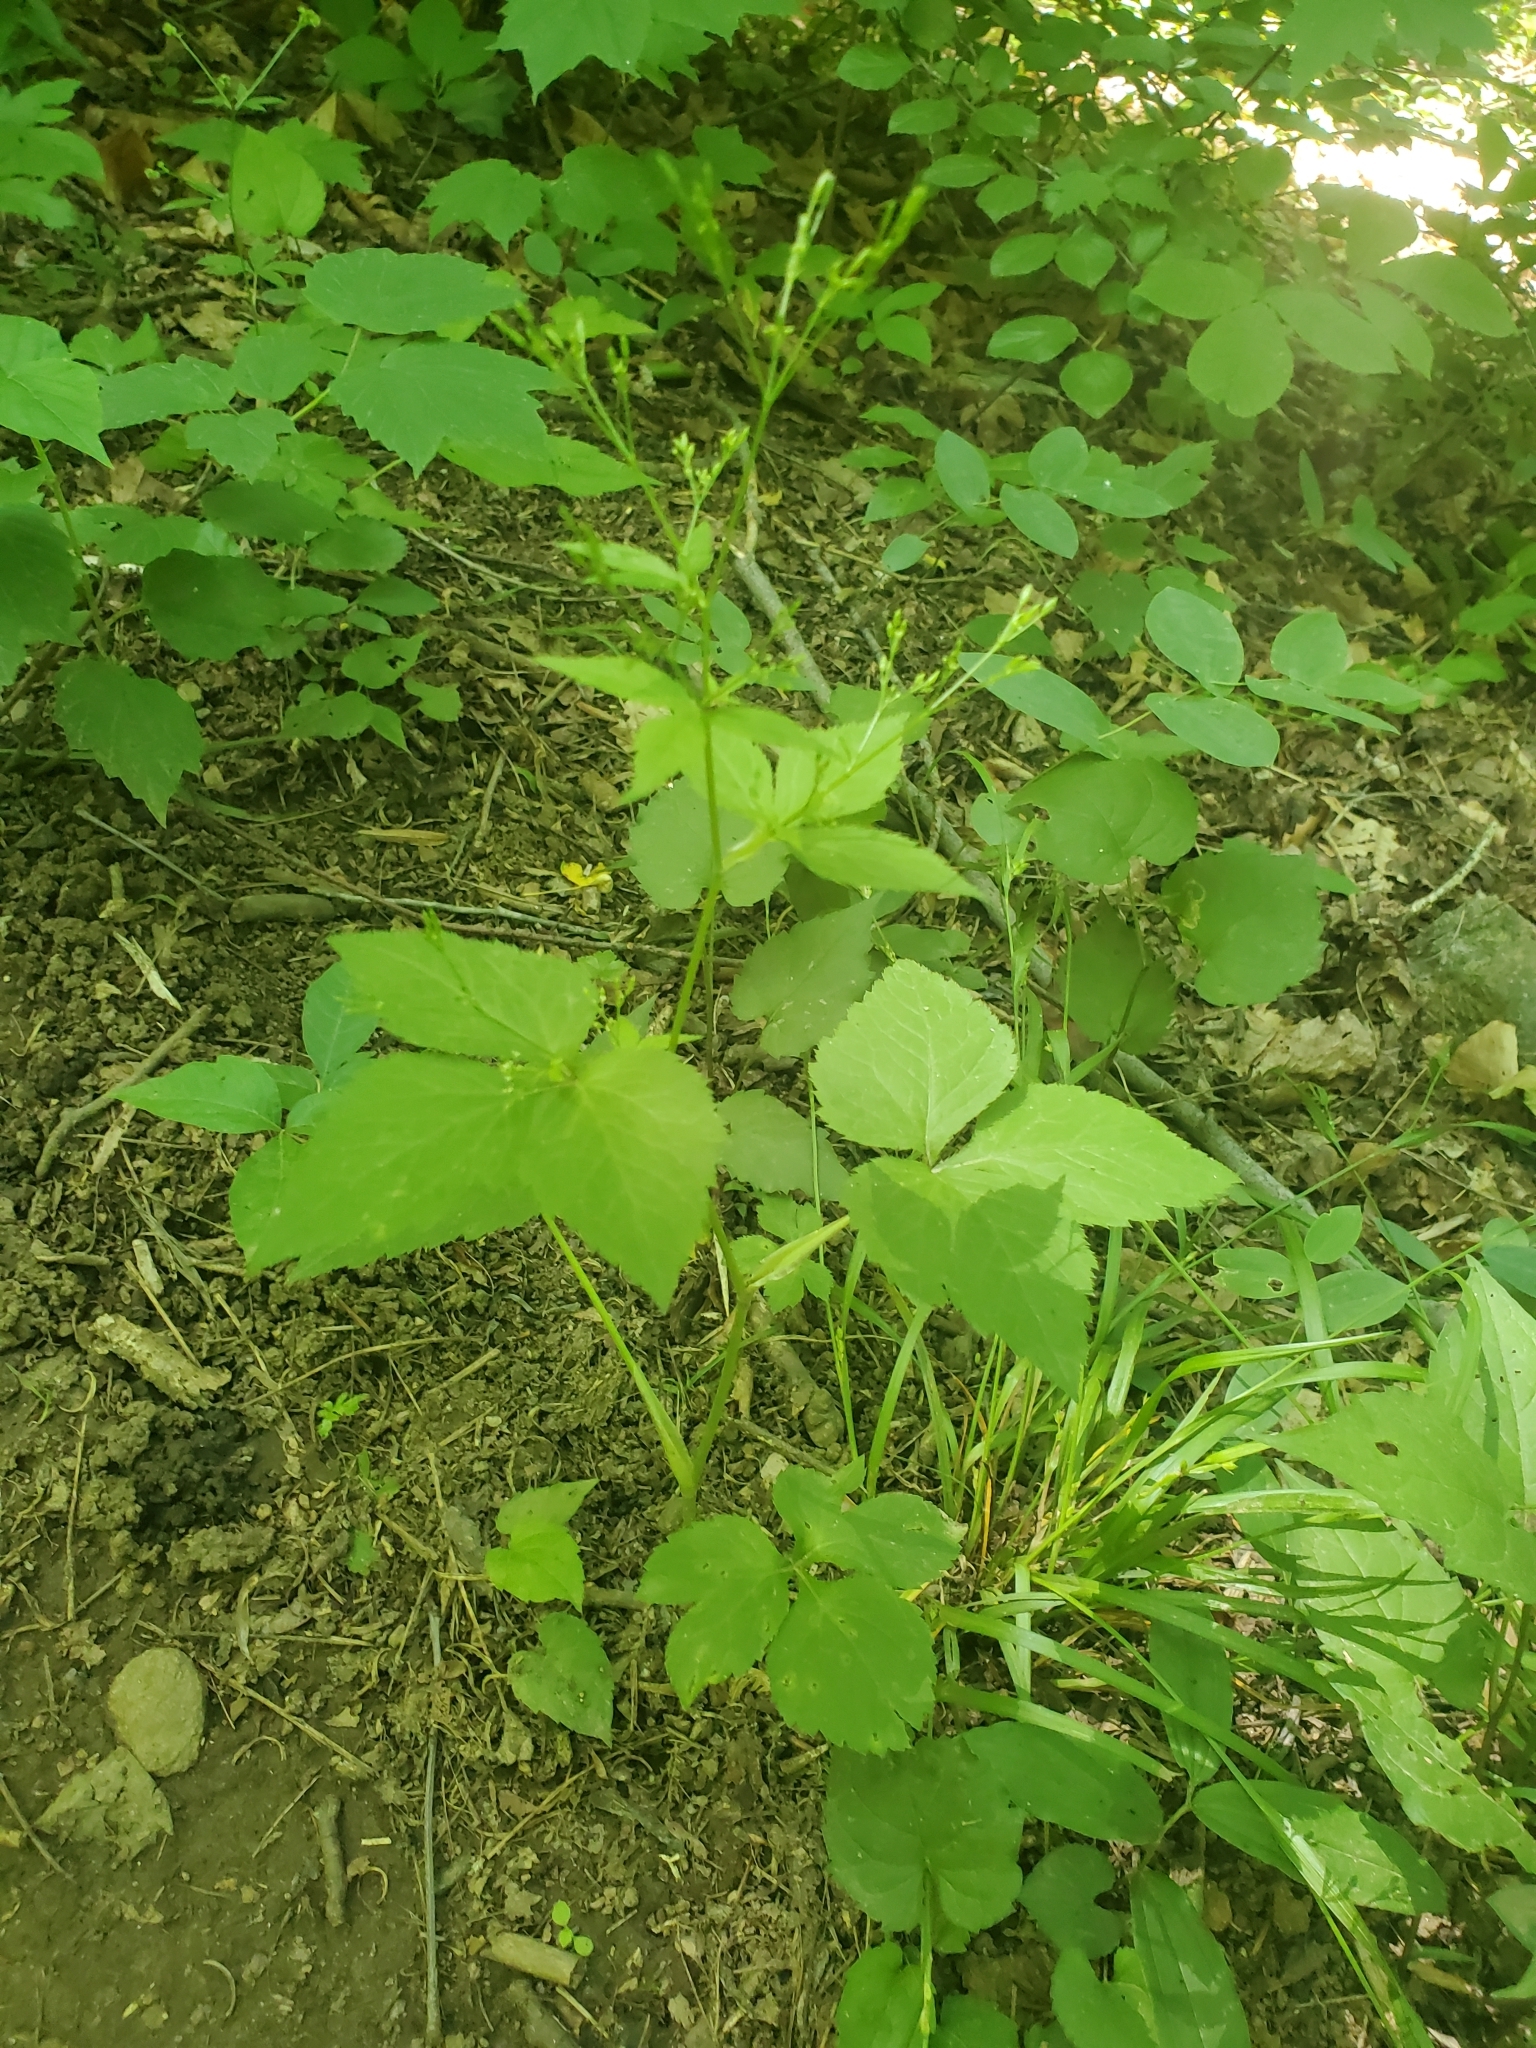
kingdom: Plantae
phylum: Tracheophyta
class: Magnoliopsida
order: Apiales
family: Apiaceae
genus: Cryptotaenia
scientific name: Cryptotaenia canadensis
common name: Honewort
